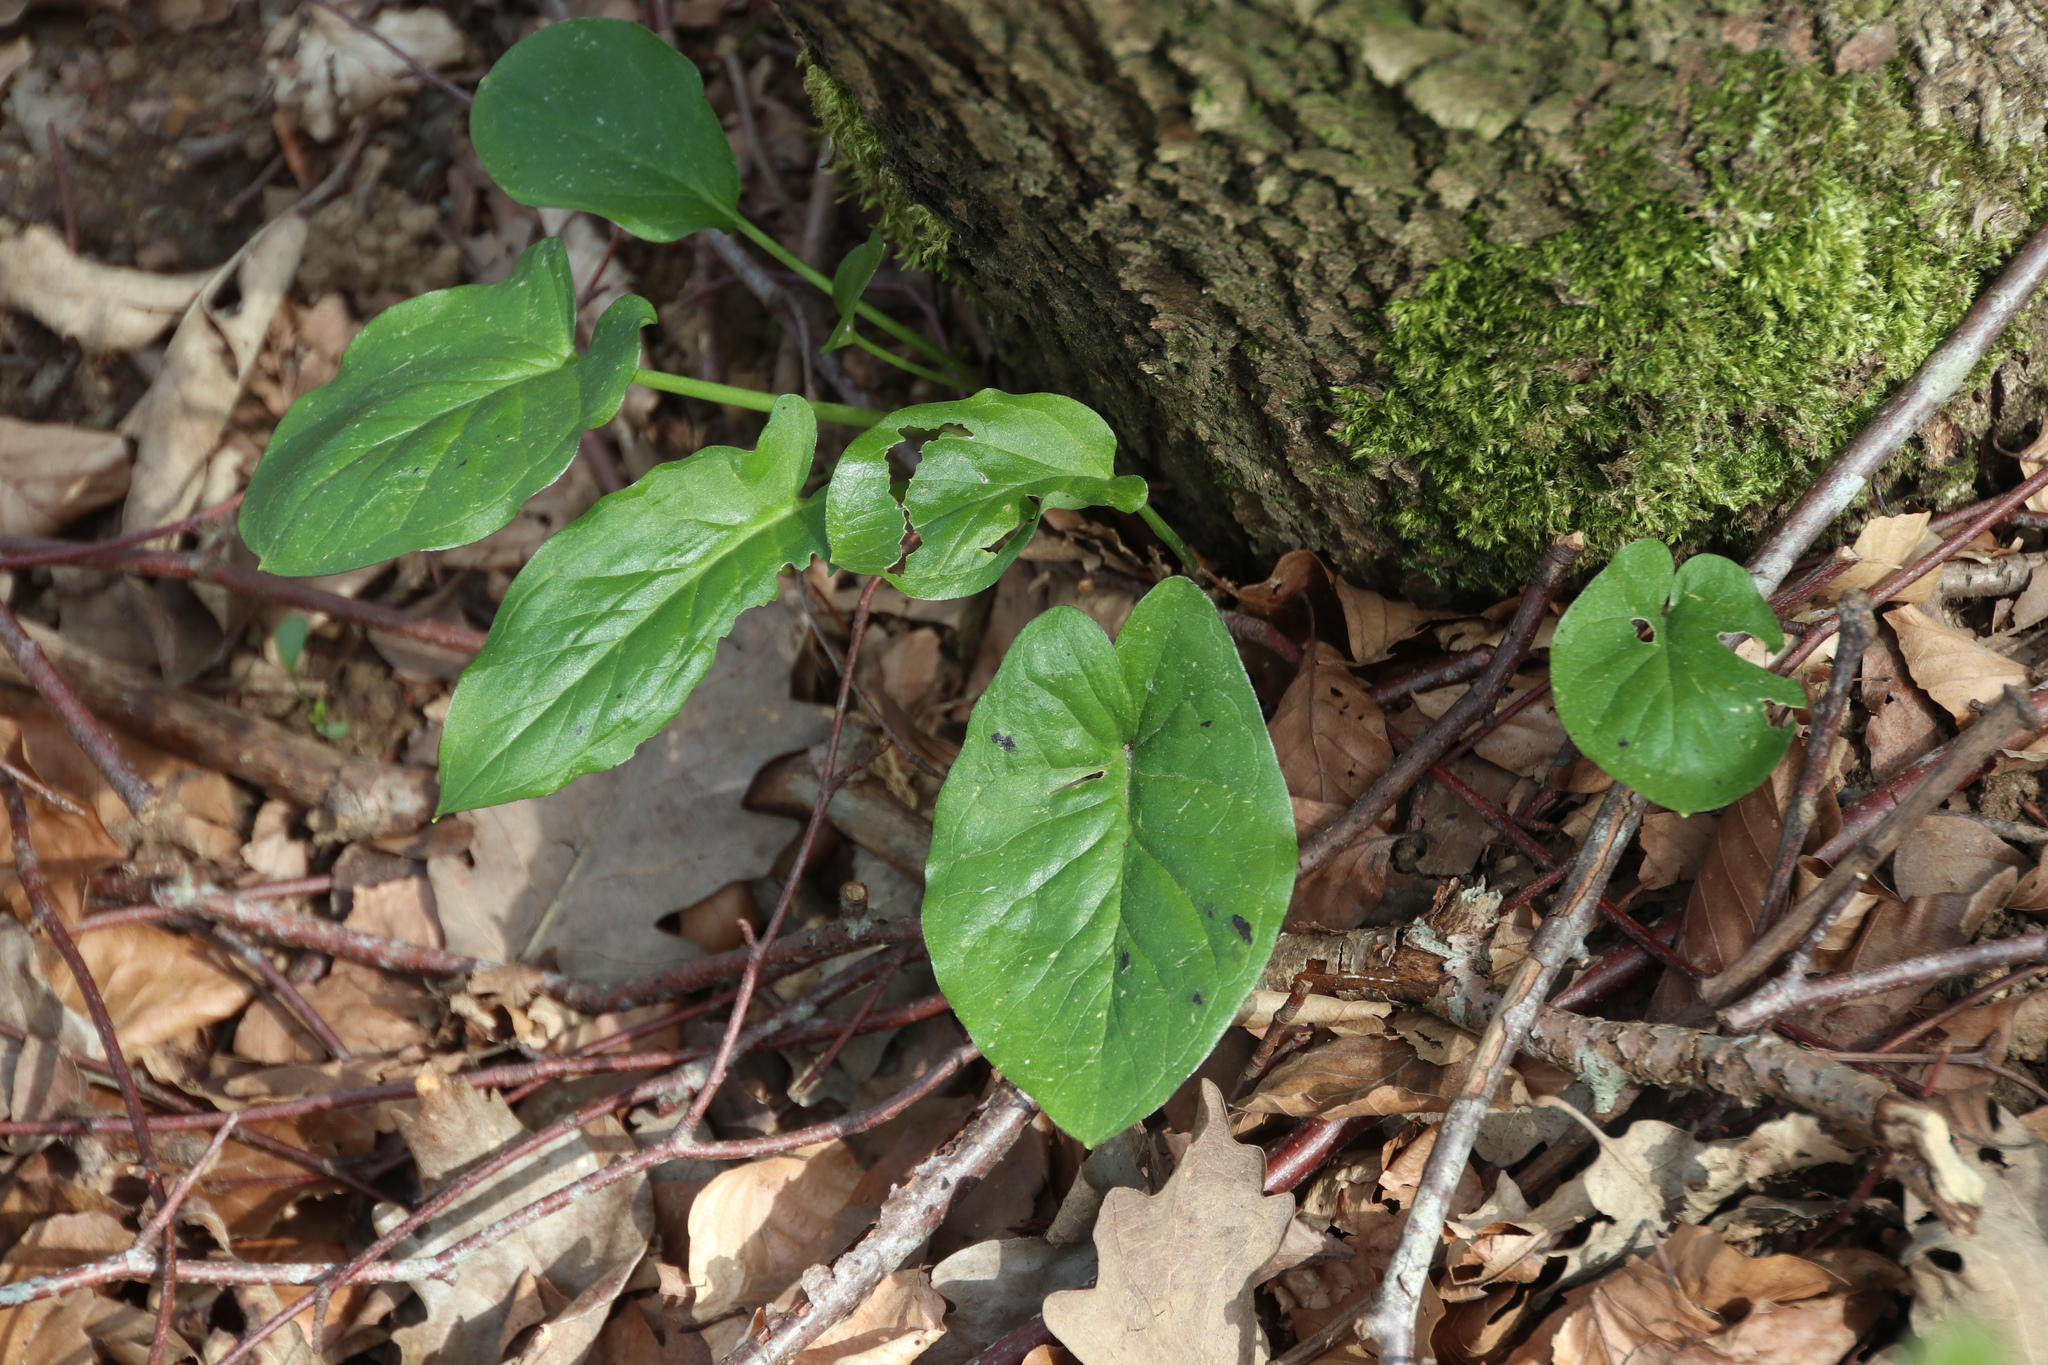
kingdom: Plantae
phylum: Tracheophyta
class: Liliopsida
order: Alismatales
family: Araceae
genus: Arum
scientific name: Arum maculatum
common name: Lords-and-ladies
